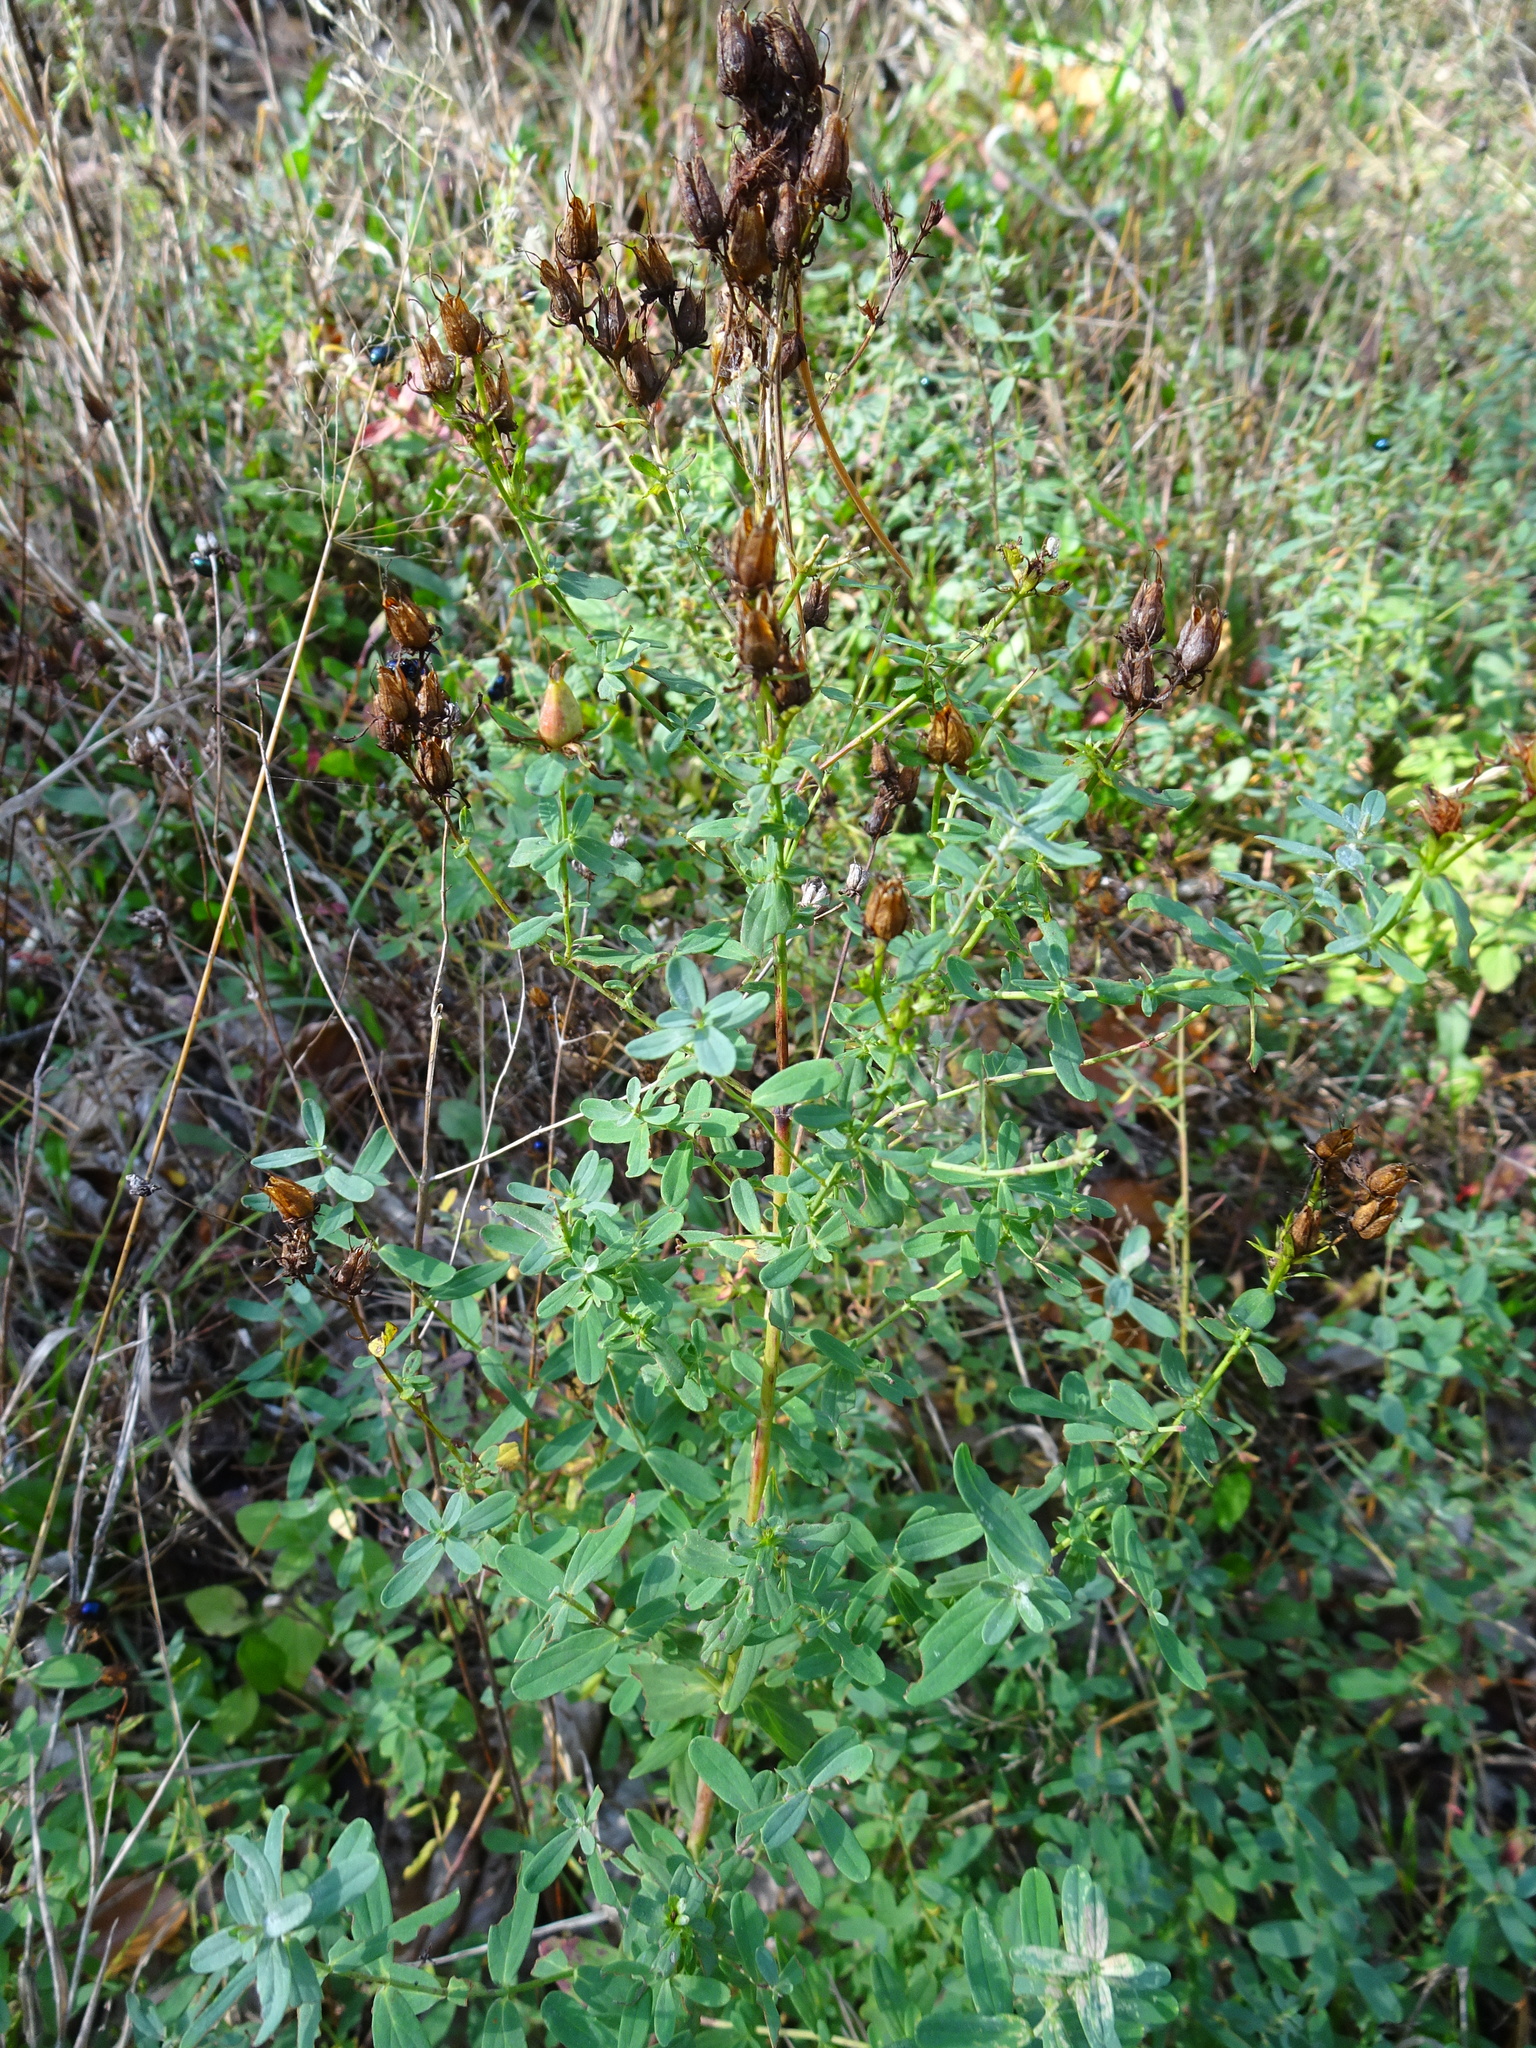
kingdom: Plantae
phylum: Tracheophyta
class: Magnoliopsida
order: Malpighiales
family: Hypericaceae
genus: Hypericum
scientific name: Hypericum perforatum
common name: Common st. johnswort
